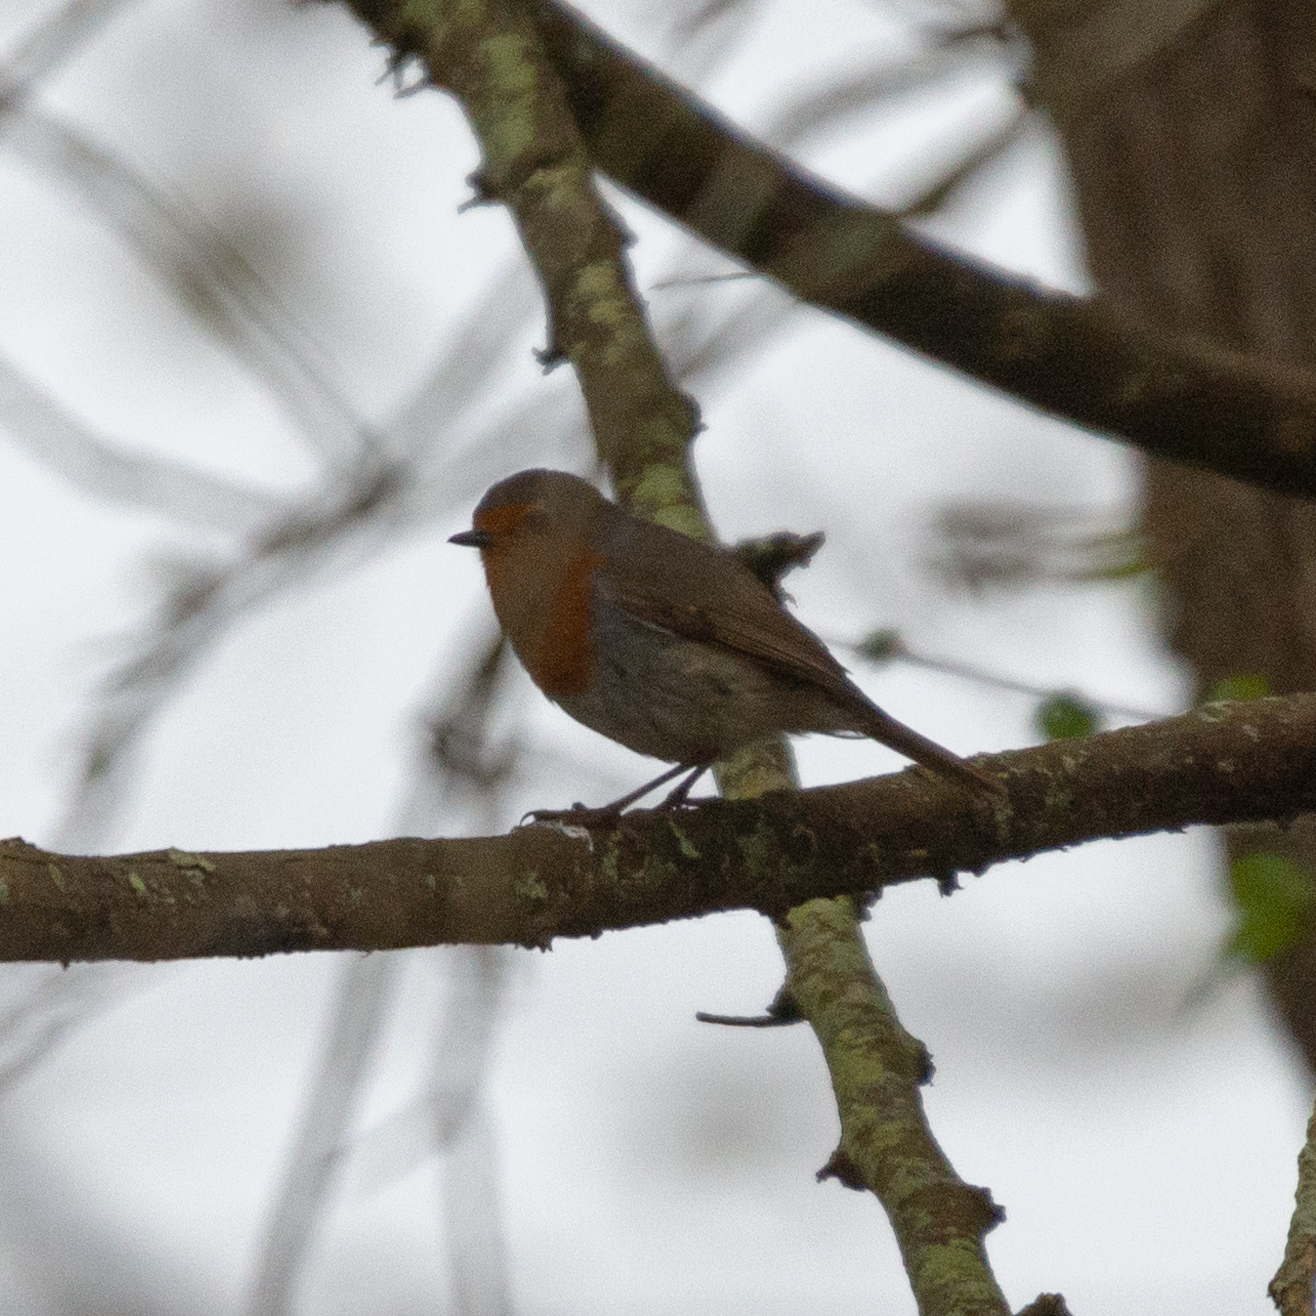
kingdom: Animalia
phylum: Chordata
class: Aves
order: Passeriformes
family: Muscicapidae
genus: Erithacus
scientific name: Erithacus rubecula
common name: European robin
